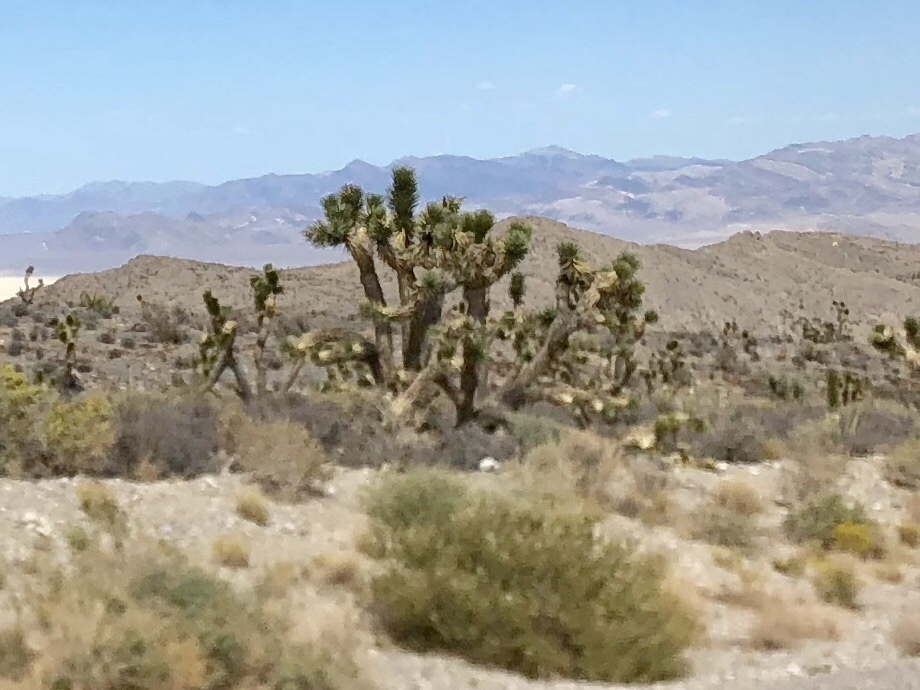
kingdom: Plantae
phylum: Tracheophyta
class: Liliopsida
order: Asparagales
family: Asparagaceae
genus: Yucca
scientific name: Yucca brevifolia
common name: Joshua tree
